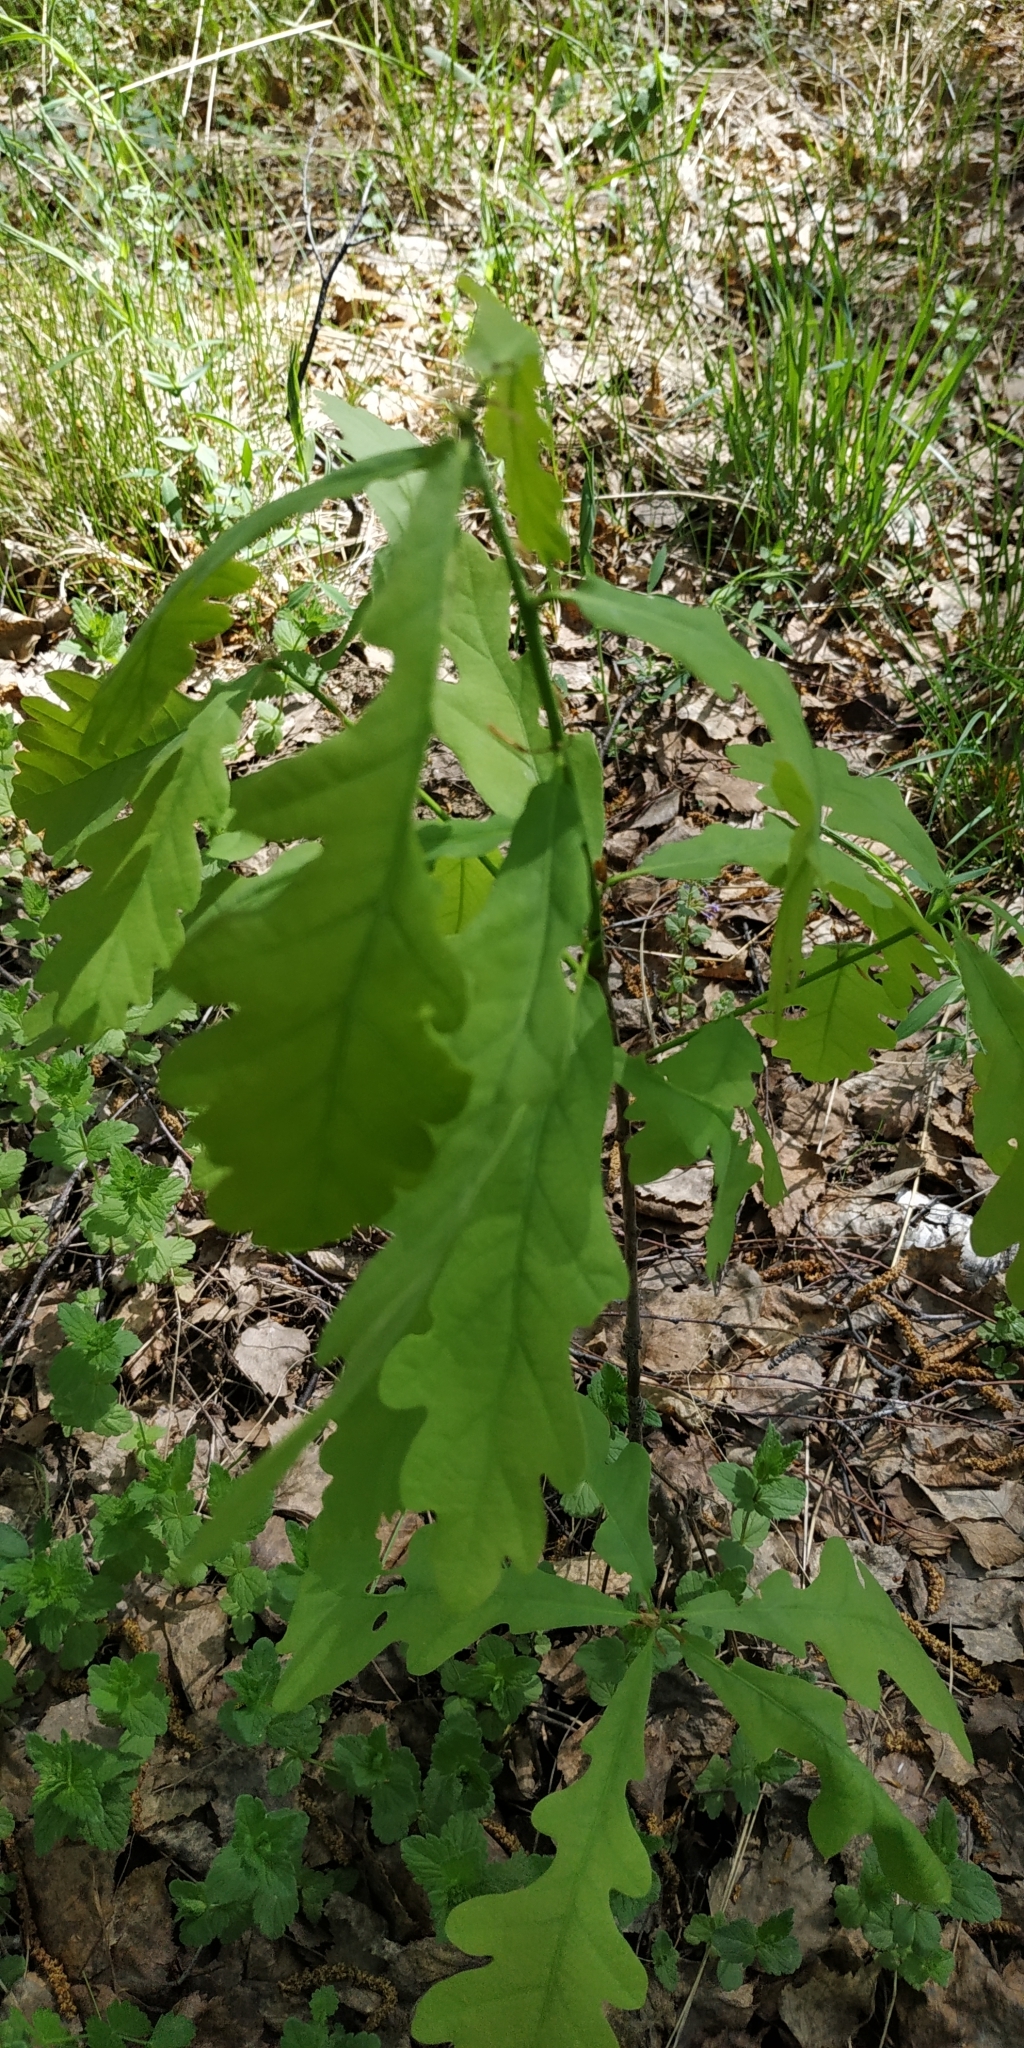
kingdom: Plantae
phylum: Tracheophyta
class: Magnoliopsida
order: Fagales
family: Fagaceae
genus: Quercus
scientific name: Quercus robur
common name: Pedunculate oak
